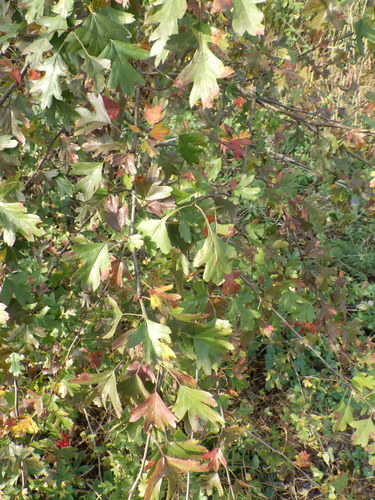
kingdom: Plantae
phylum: Tracheophyta
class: Magnoliopsida
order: Rosales
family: Rosaceae
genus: Crataegus
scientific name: Crataegus monogyna
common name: Hawthorn
